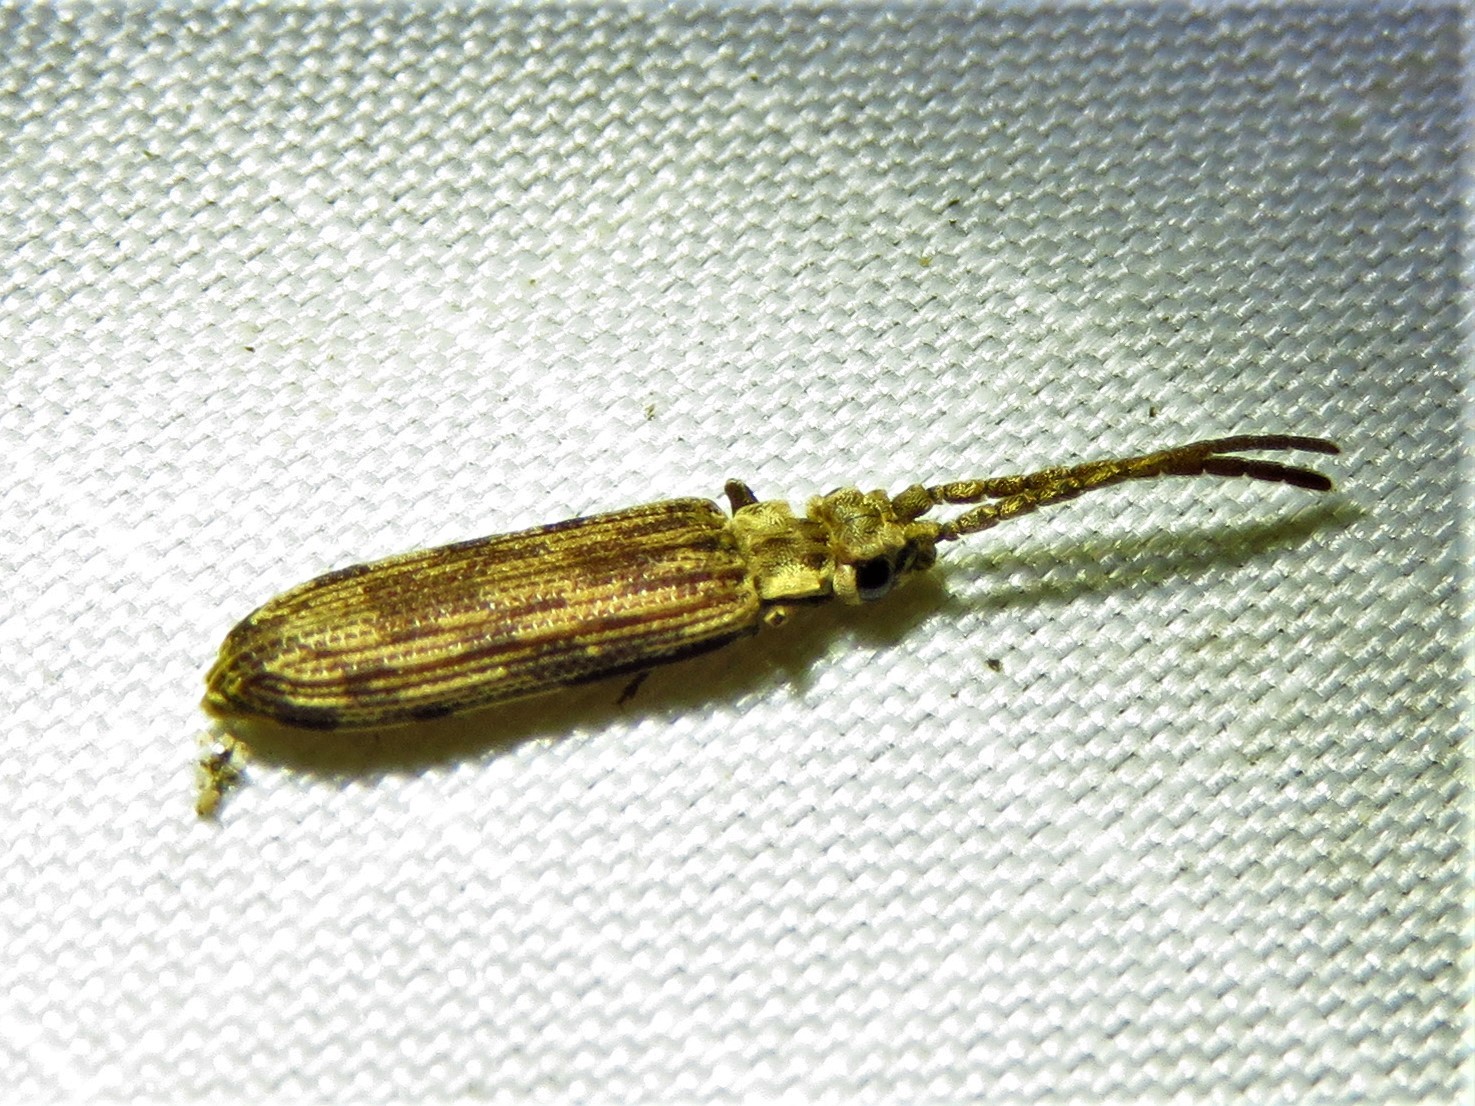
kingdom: Animalia
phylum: Arthropoda
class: Insecta
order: Coleoptera
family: Cupedidae
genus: Tenomerga
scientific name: Tenomerga cinerea
